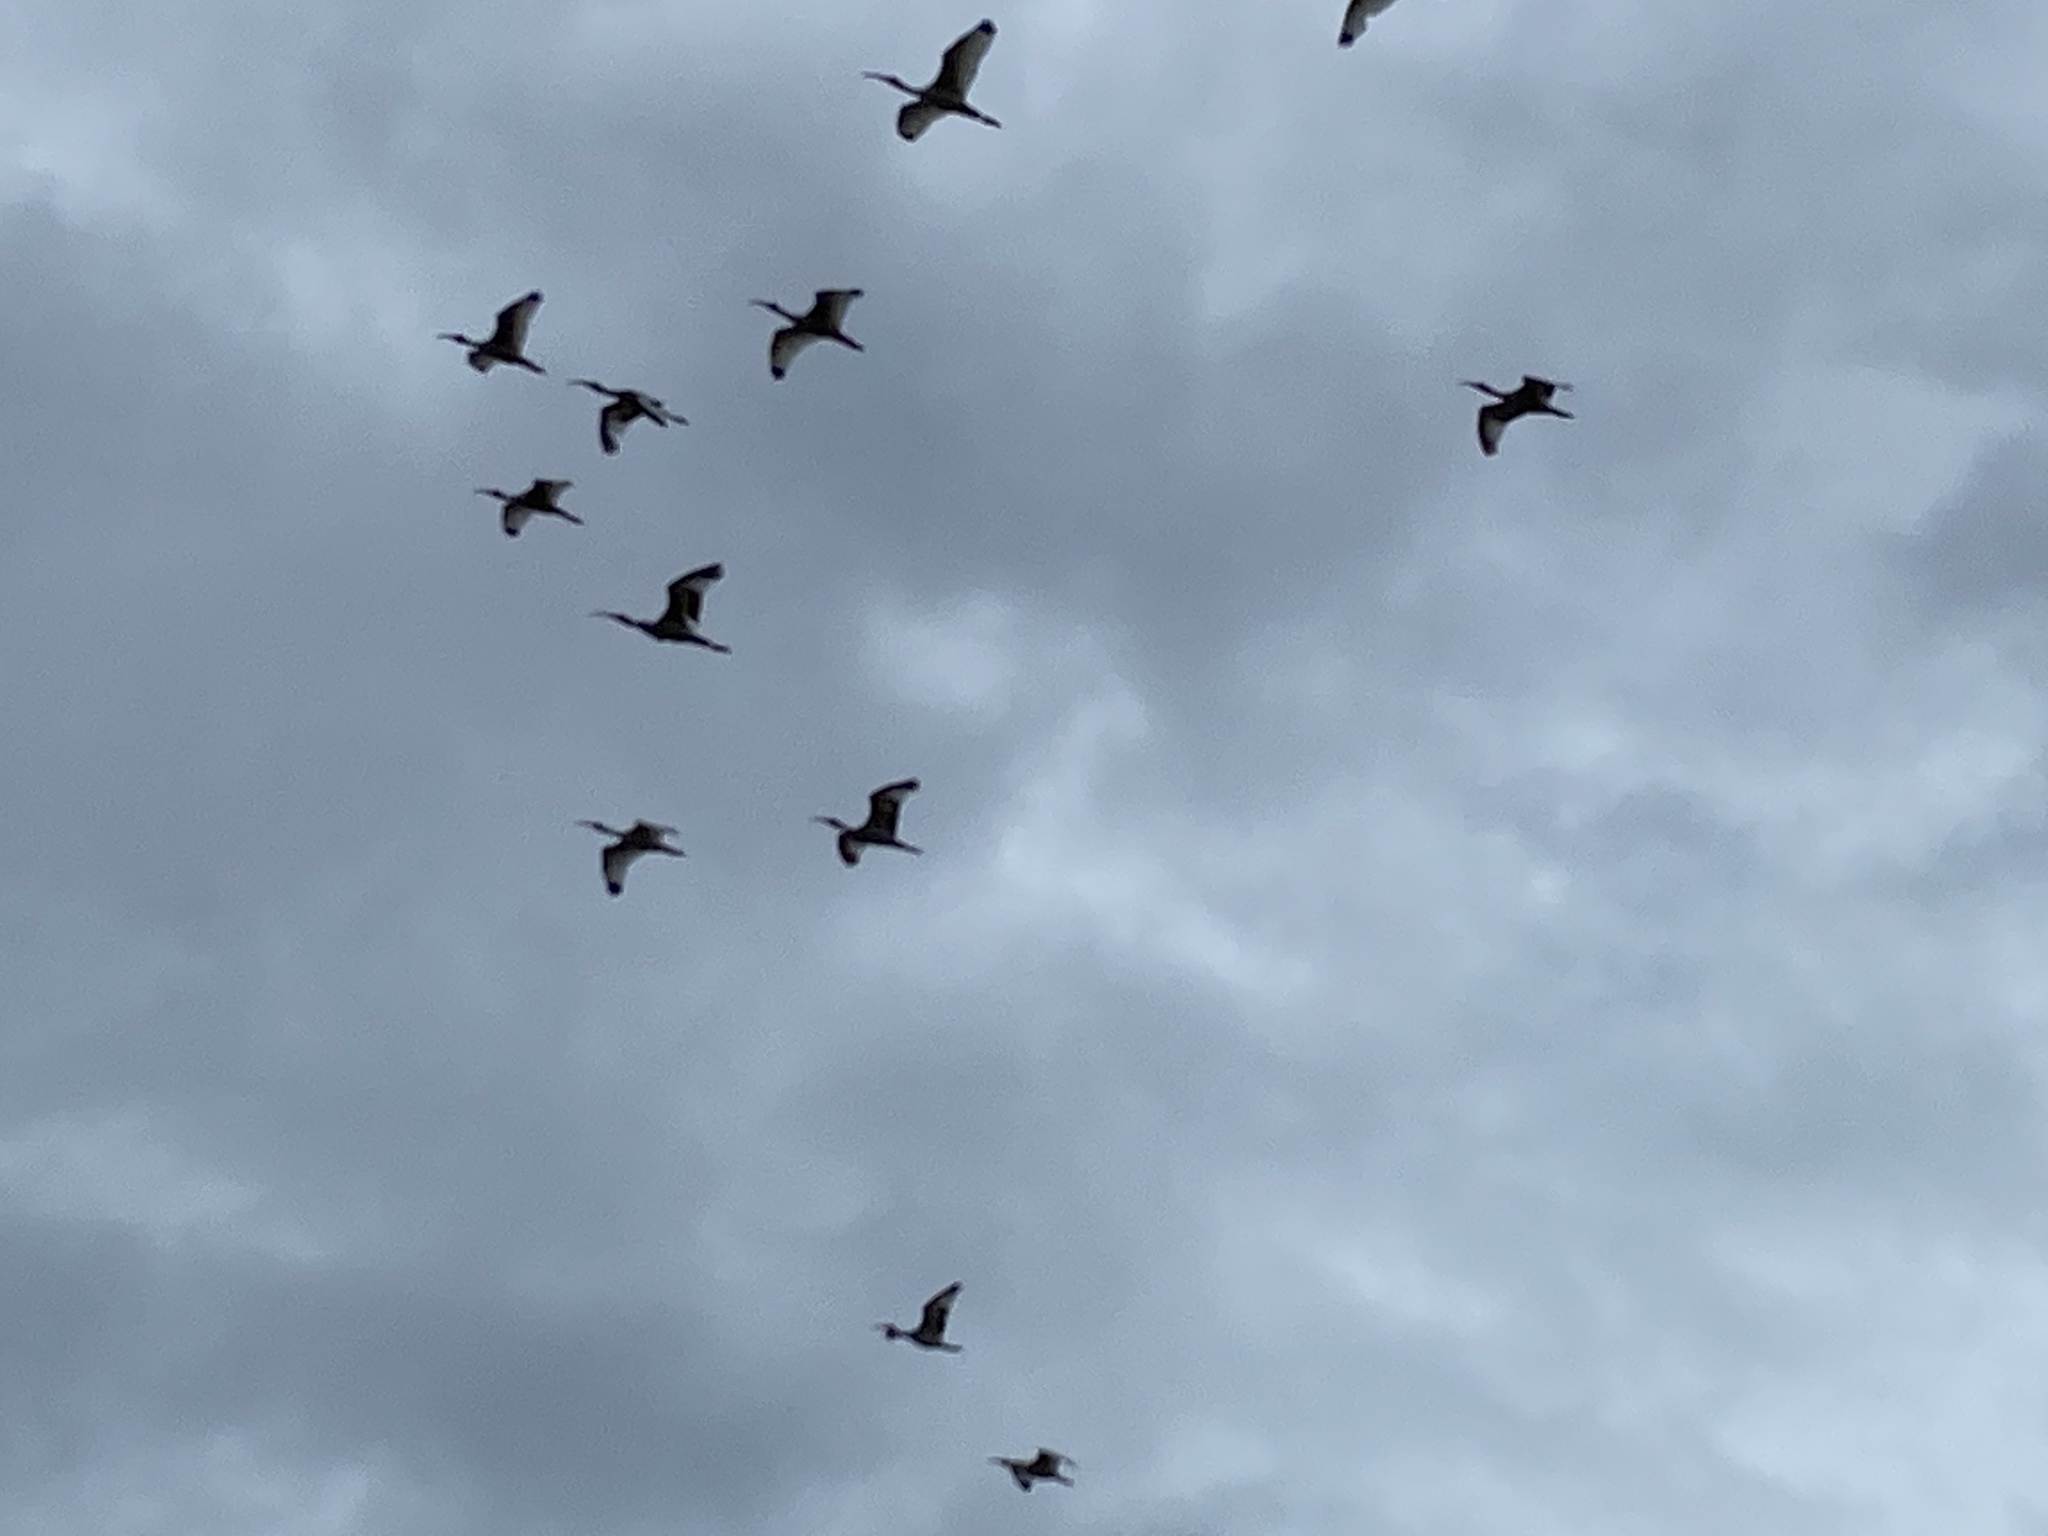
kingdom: Animalia
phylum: Chordata
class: Aves
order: Pelecaniformes
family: Threskiornithidae
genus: Eudocimus
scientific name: Eudocimus albus
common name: White ibis
